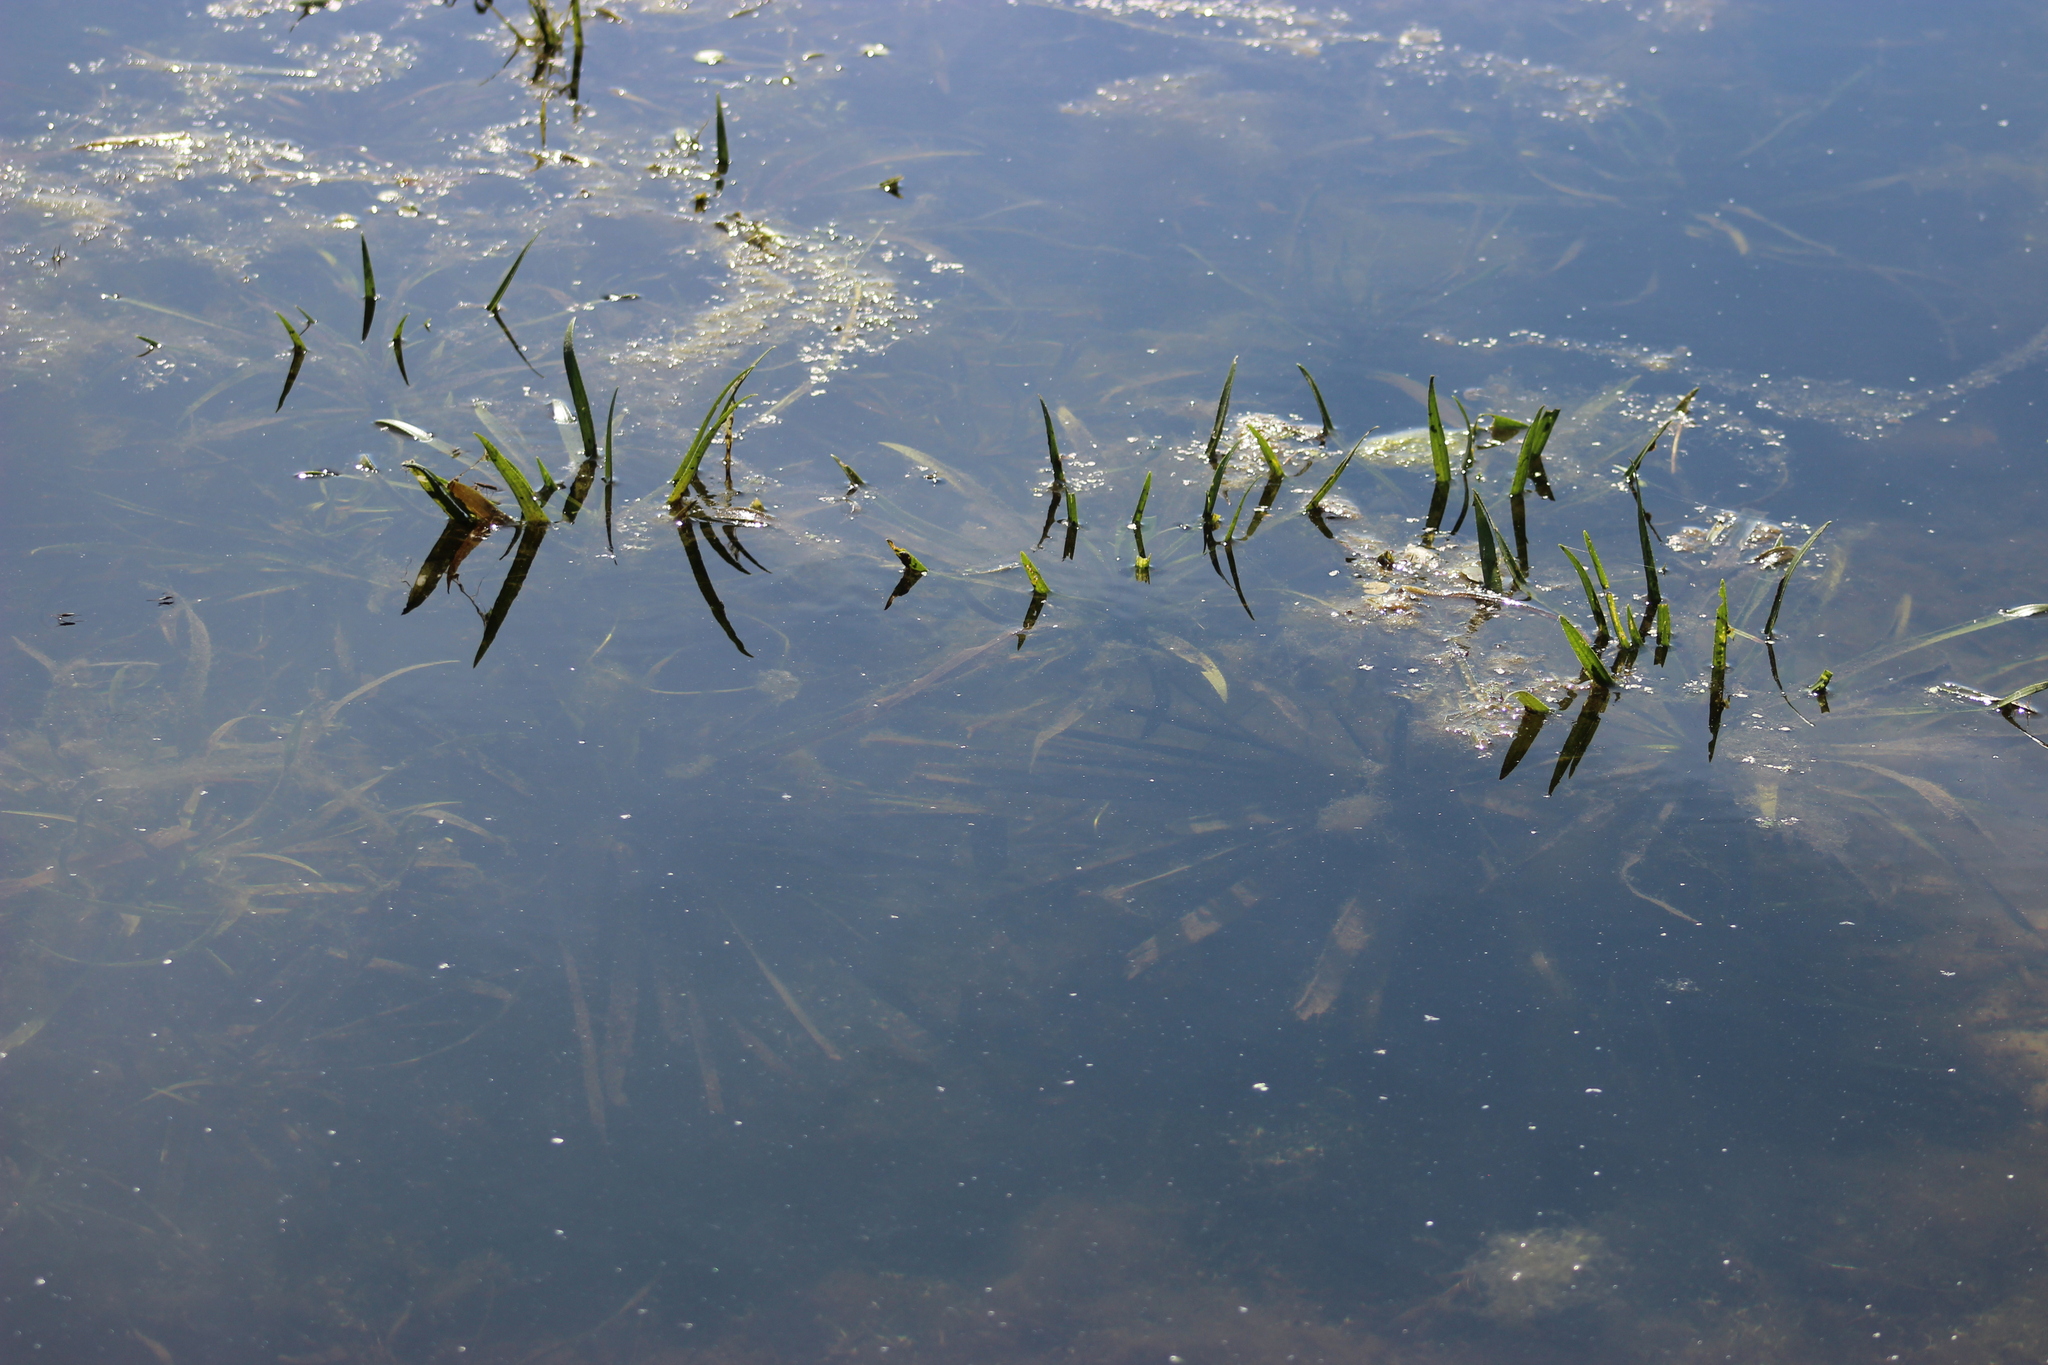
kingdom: Plantae
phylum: Tracheophyta
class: Liliopsida
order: Alismatales
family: Hydrocharitaceae
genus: Stratiotes
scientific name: Stratiotes aloides
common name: Water-soldier
